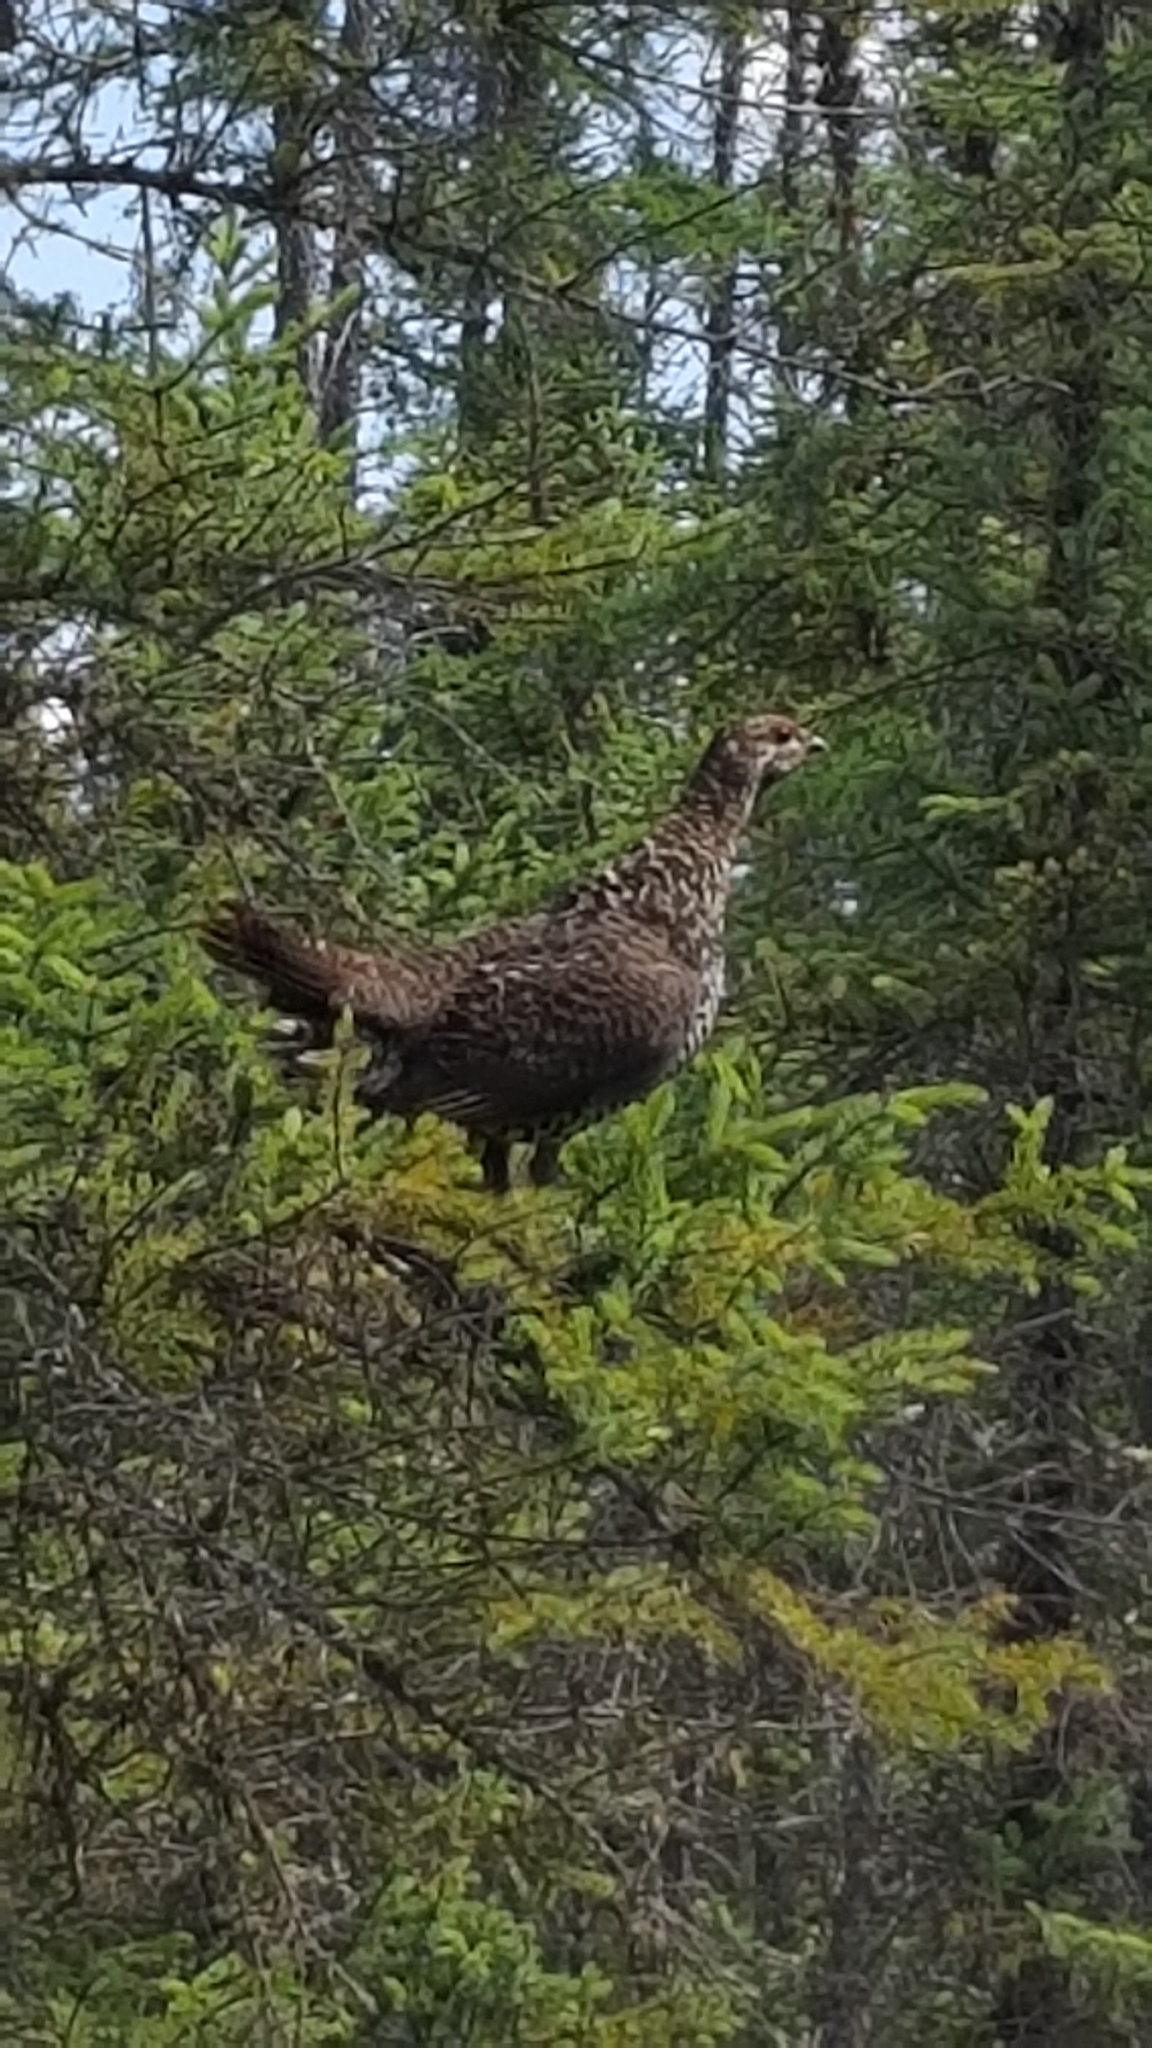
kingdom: Animalia
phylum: Chordata
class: Aves
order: Galliformes
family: Phasianidae
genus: Canachites
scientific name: Canachites canadensis
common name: Spruce grouse
